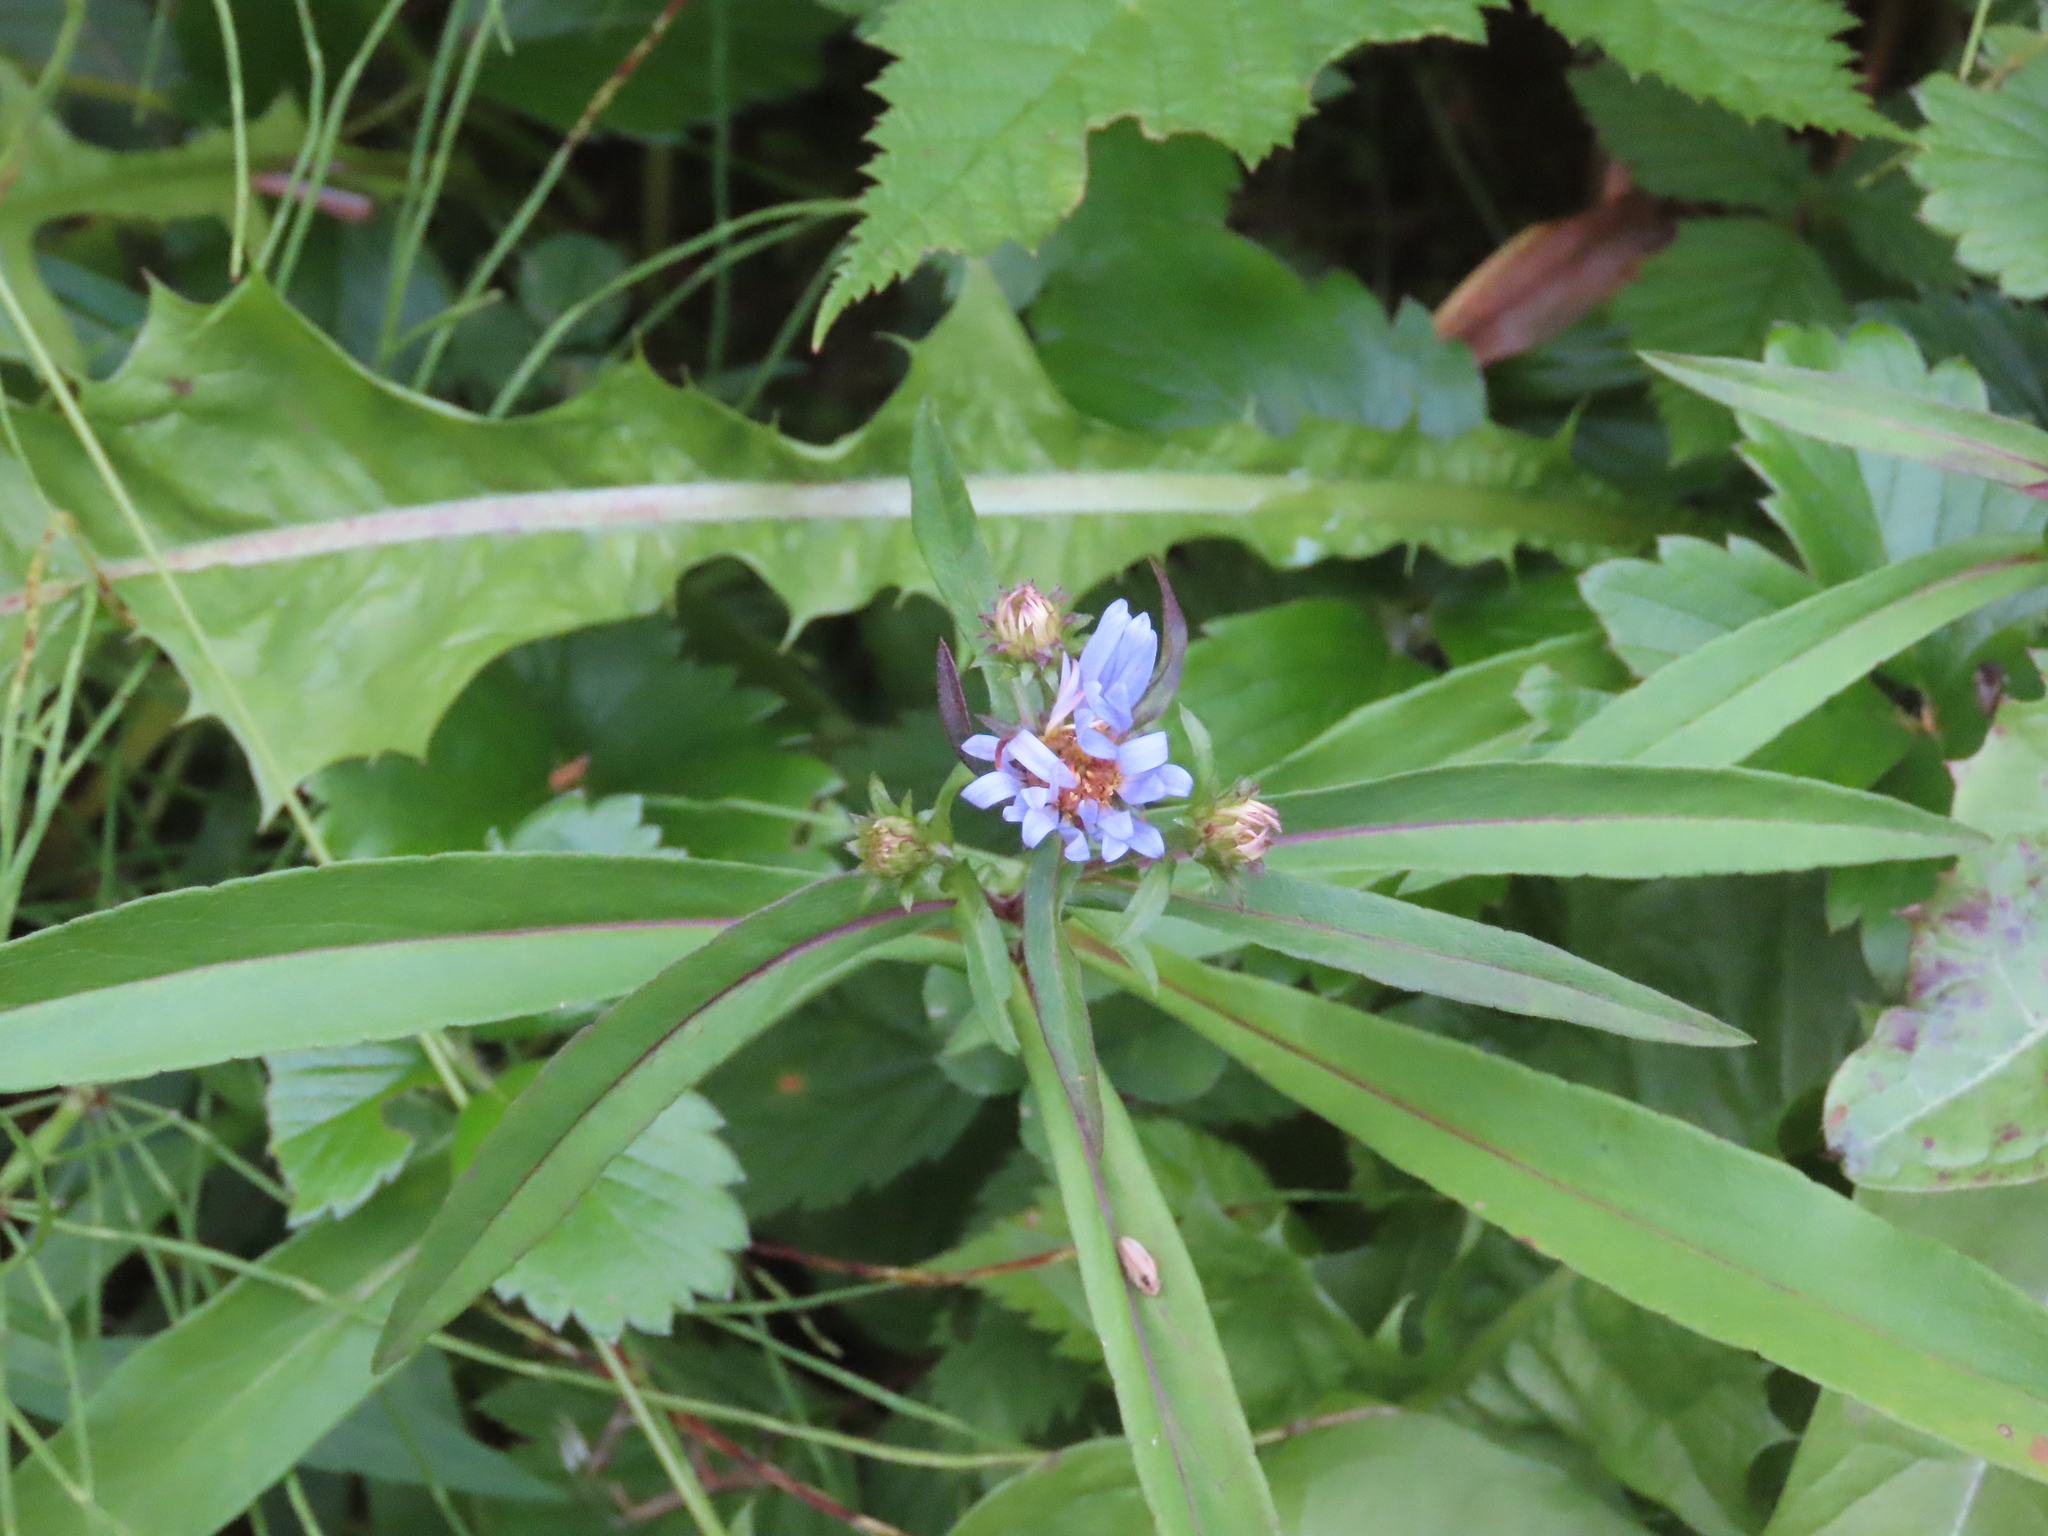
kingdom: Plantae
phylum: Tracheophyta
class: Magnoliopsida
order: Asterales
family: Asteraceae
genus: Symphyotrichum
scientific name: Symphyotrichum subspicatum
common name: Douglas' aster
